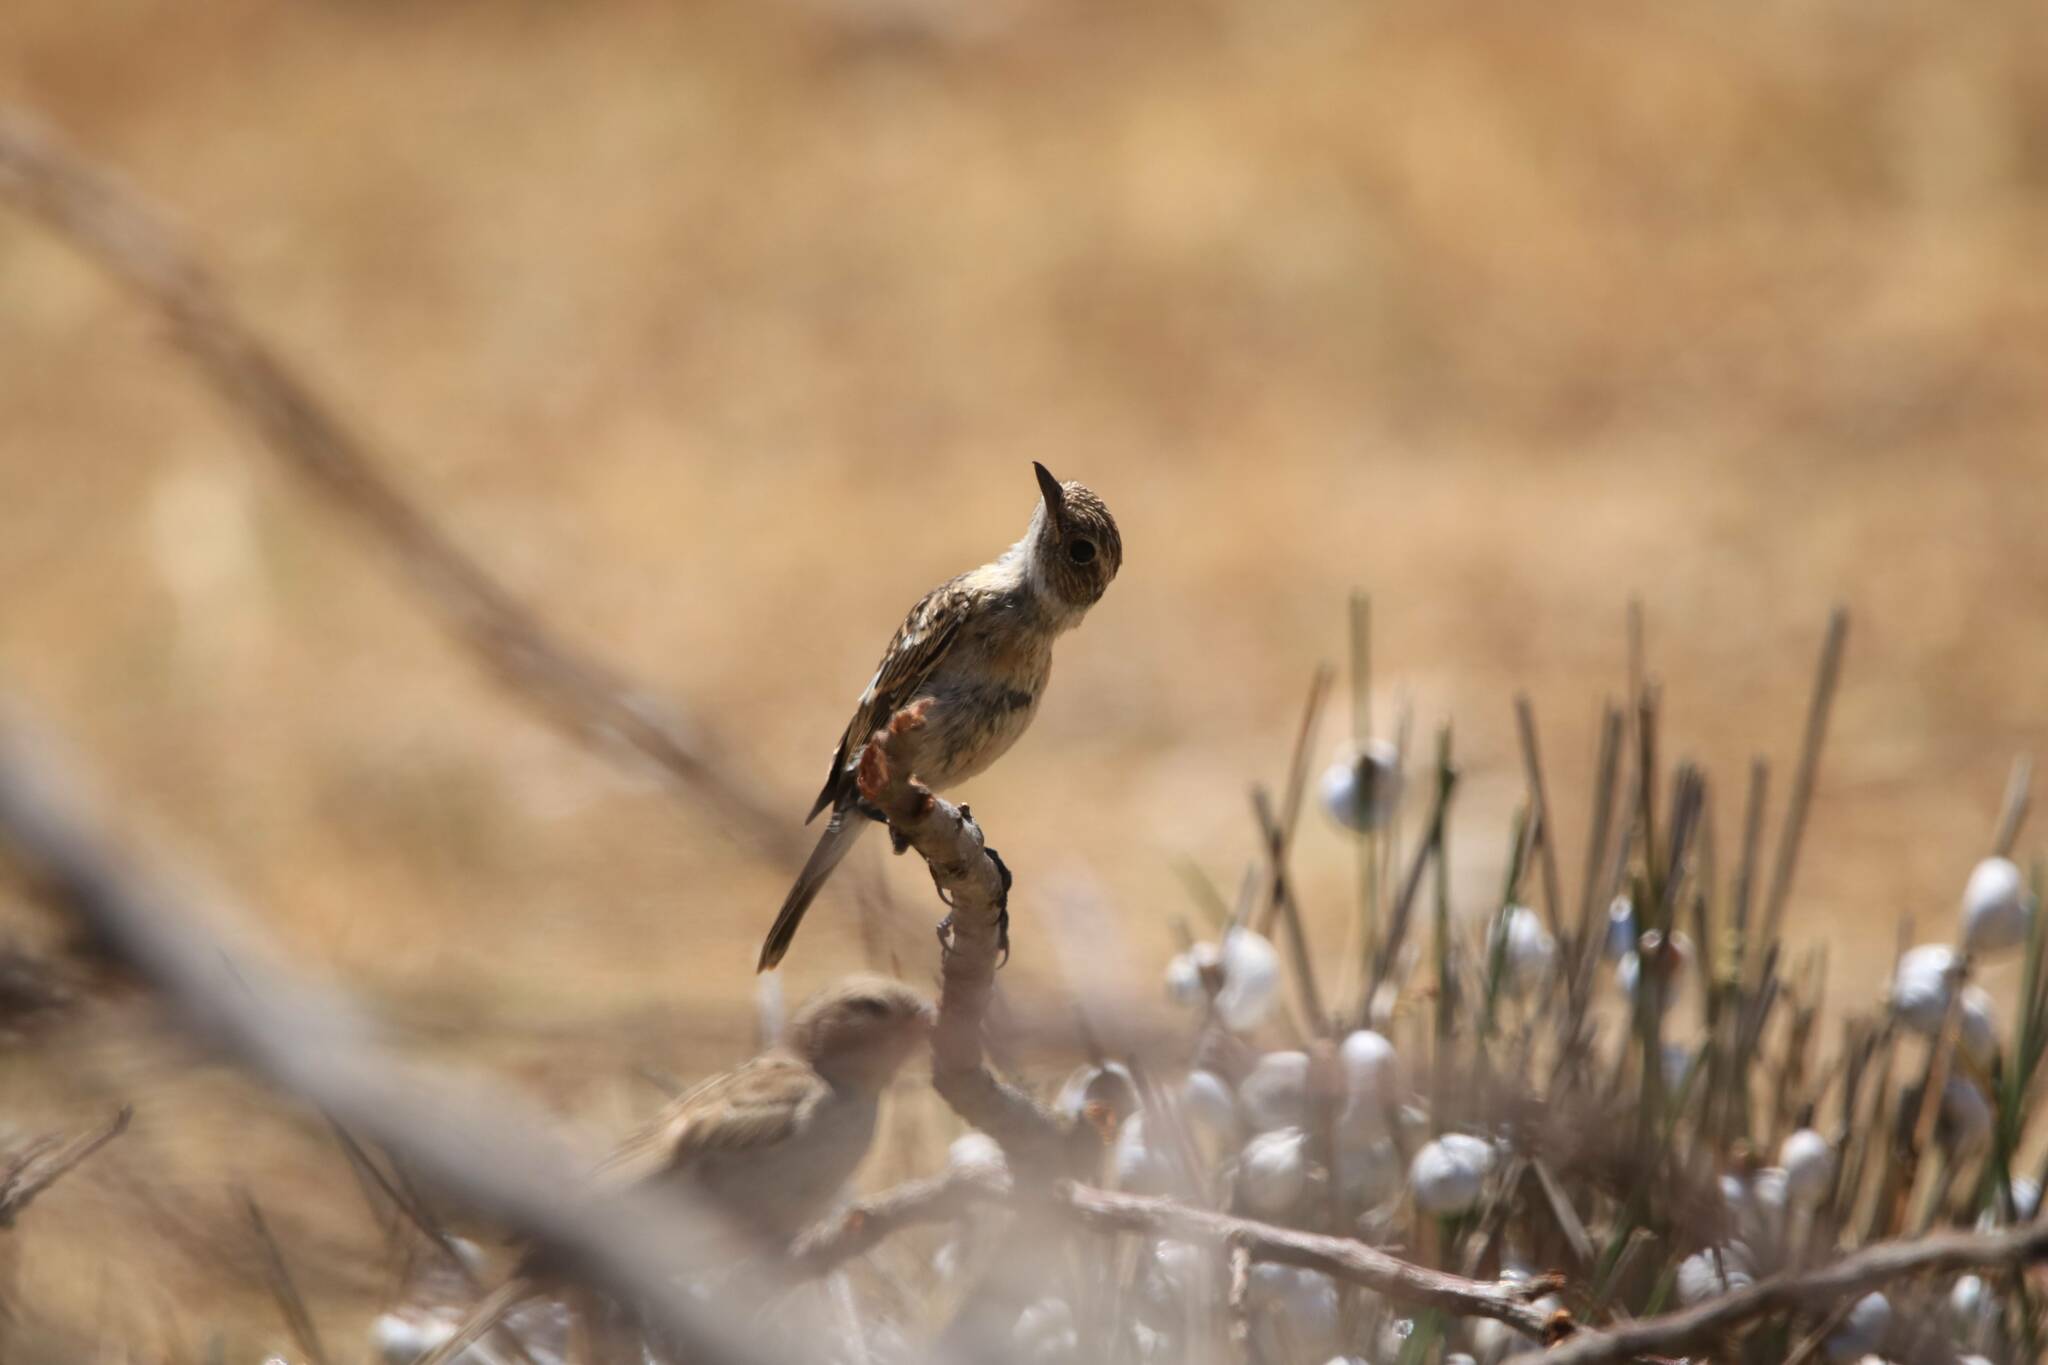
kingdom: Animalia
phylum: Chordata
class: Aves
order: Passeriformes
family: Muscicapidae
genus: Saxicola
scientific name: Saxicola rubicola
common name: European stonechat
